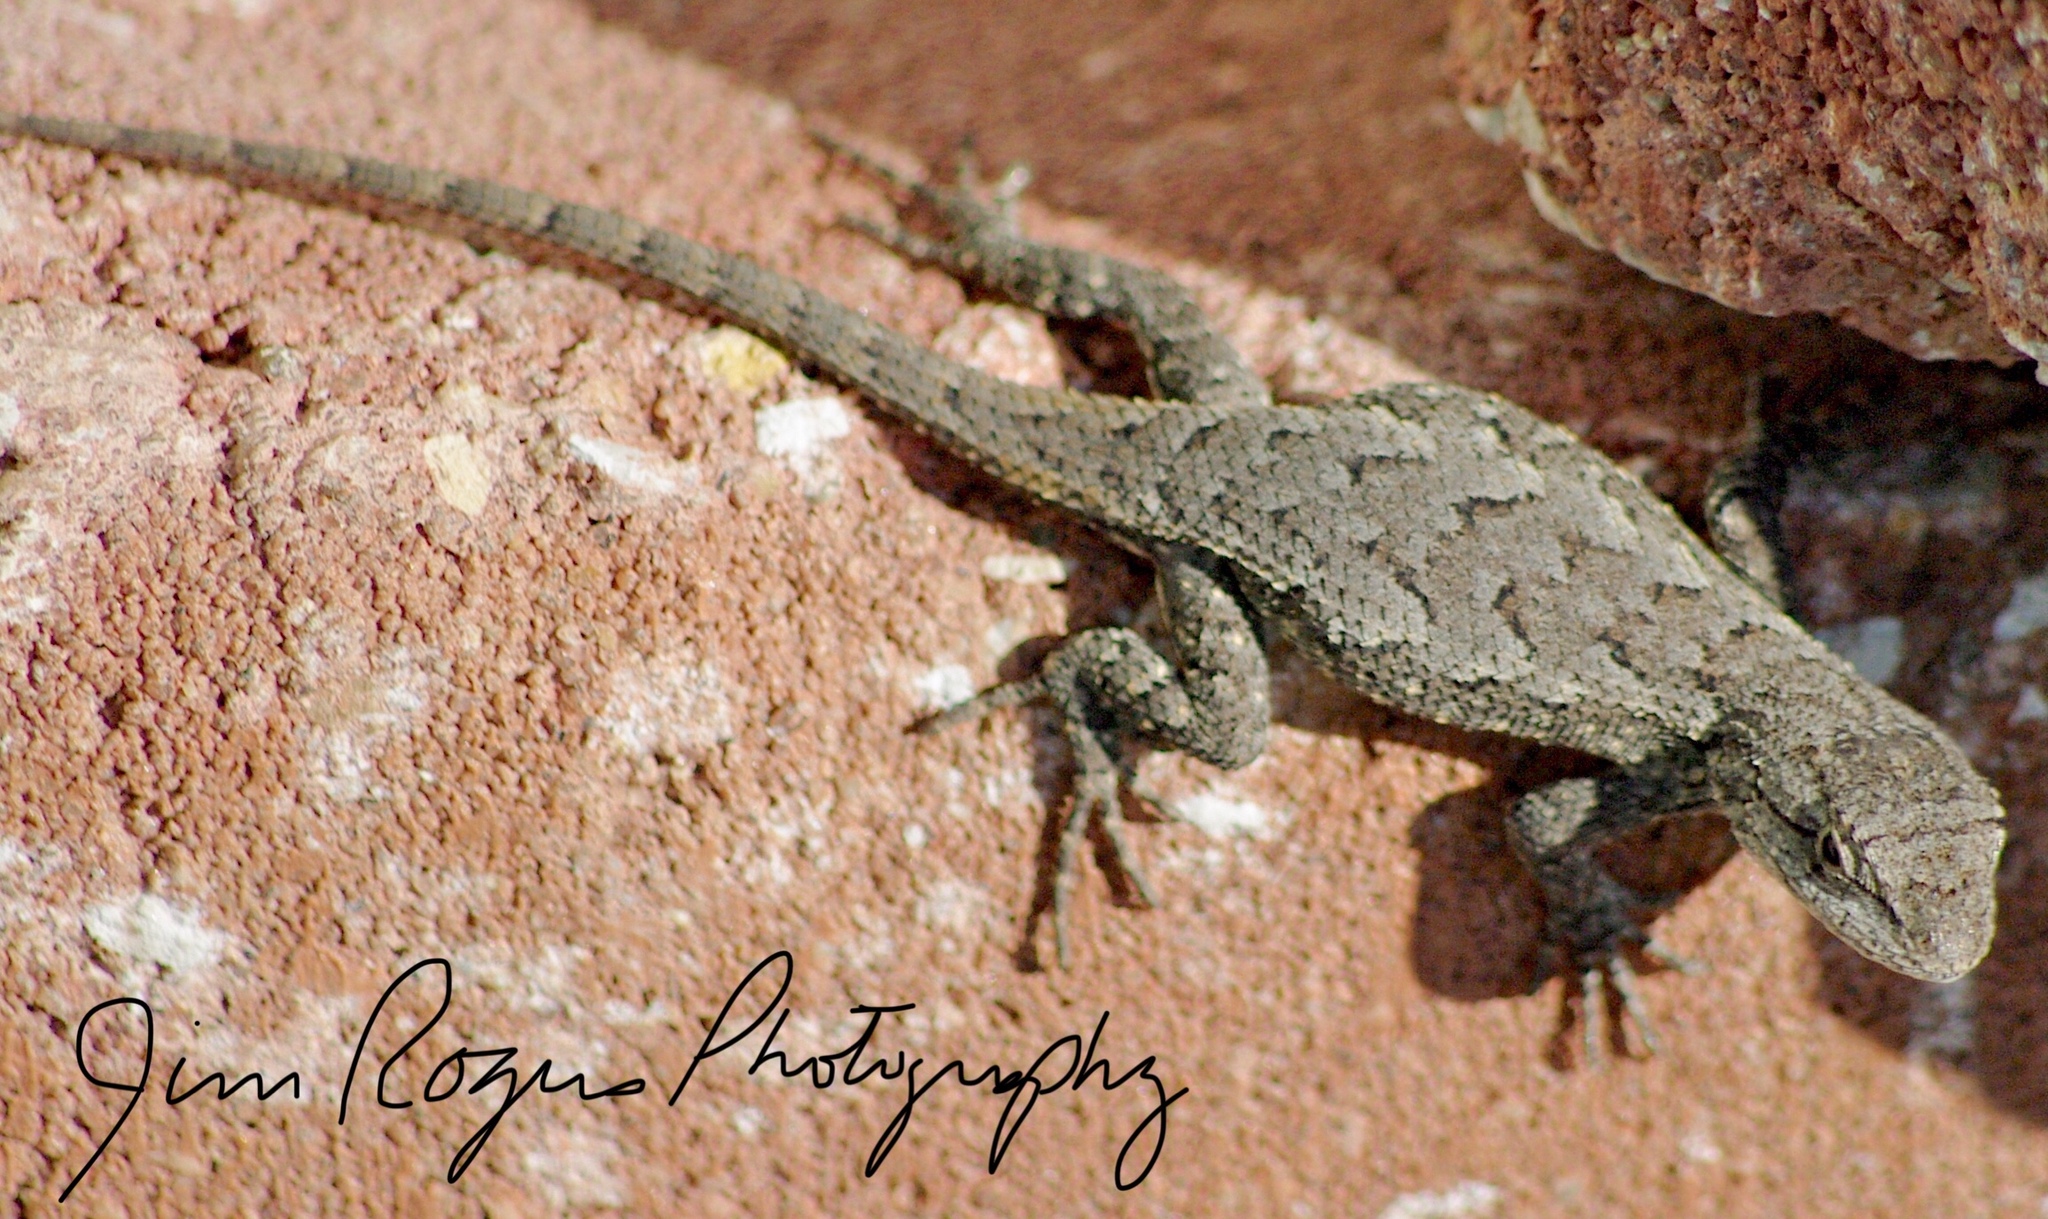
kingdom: Animalia
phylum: Chordata
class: Squamata
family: Phrynosomatidae
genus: Sceloporus
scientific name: Sceloporus consobrinus
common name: Southern prairie lizard
